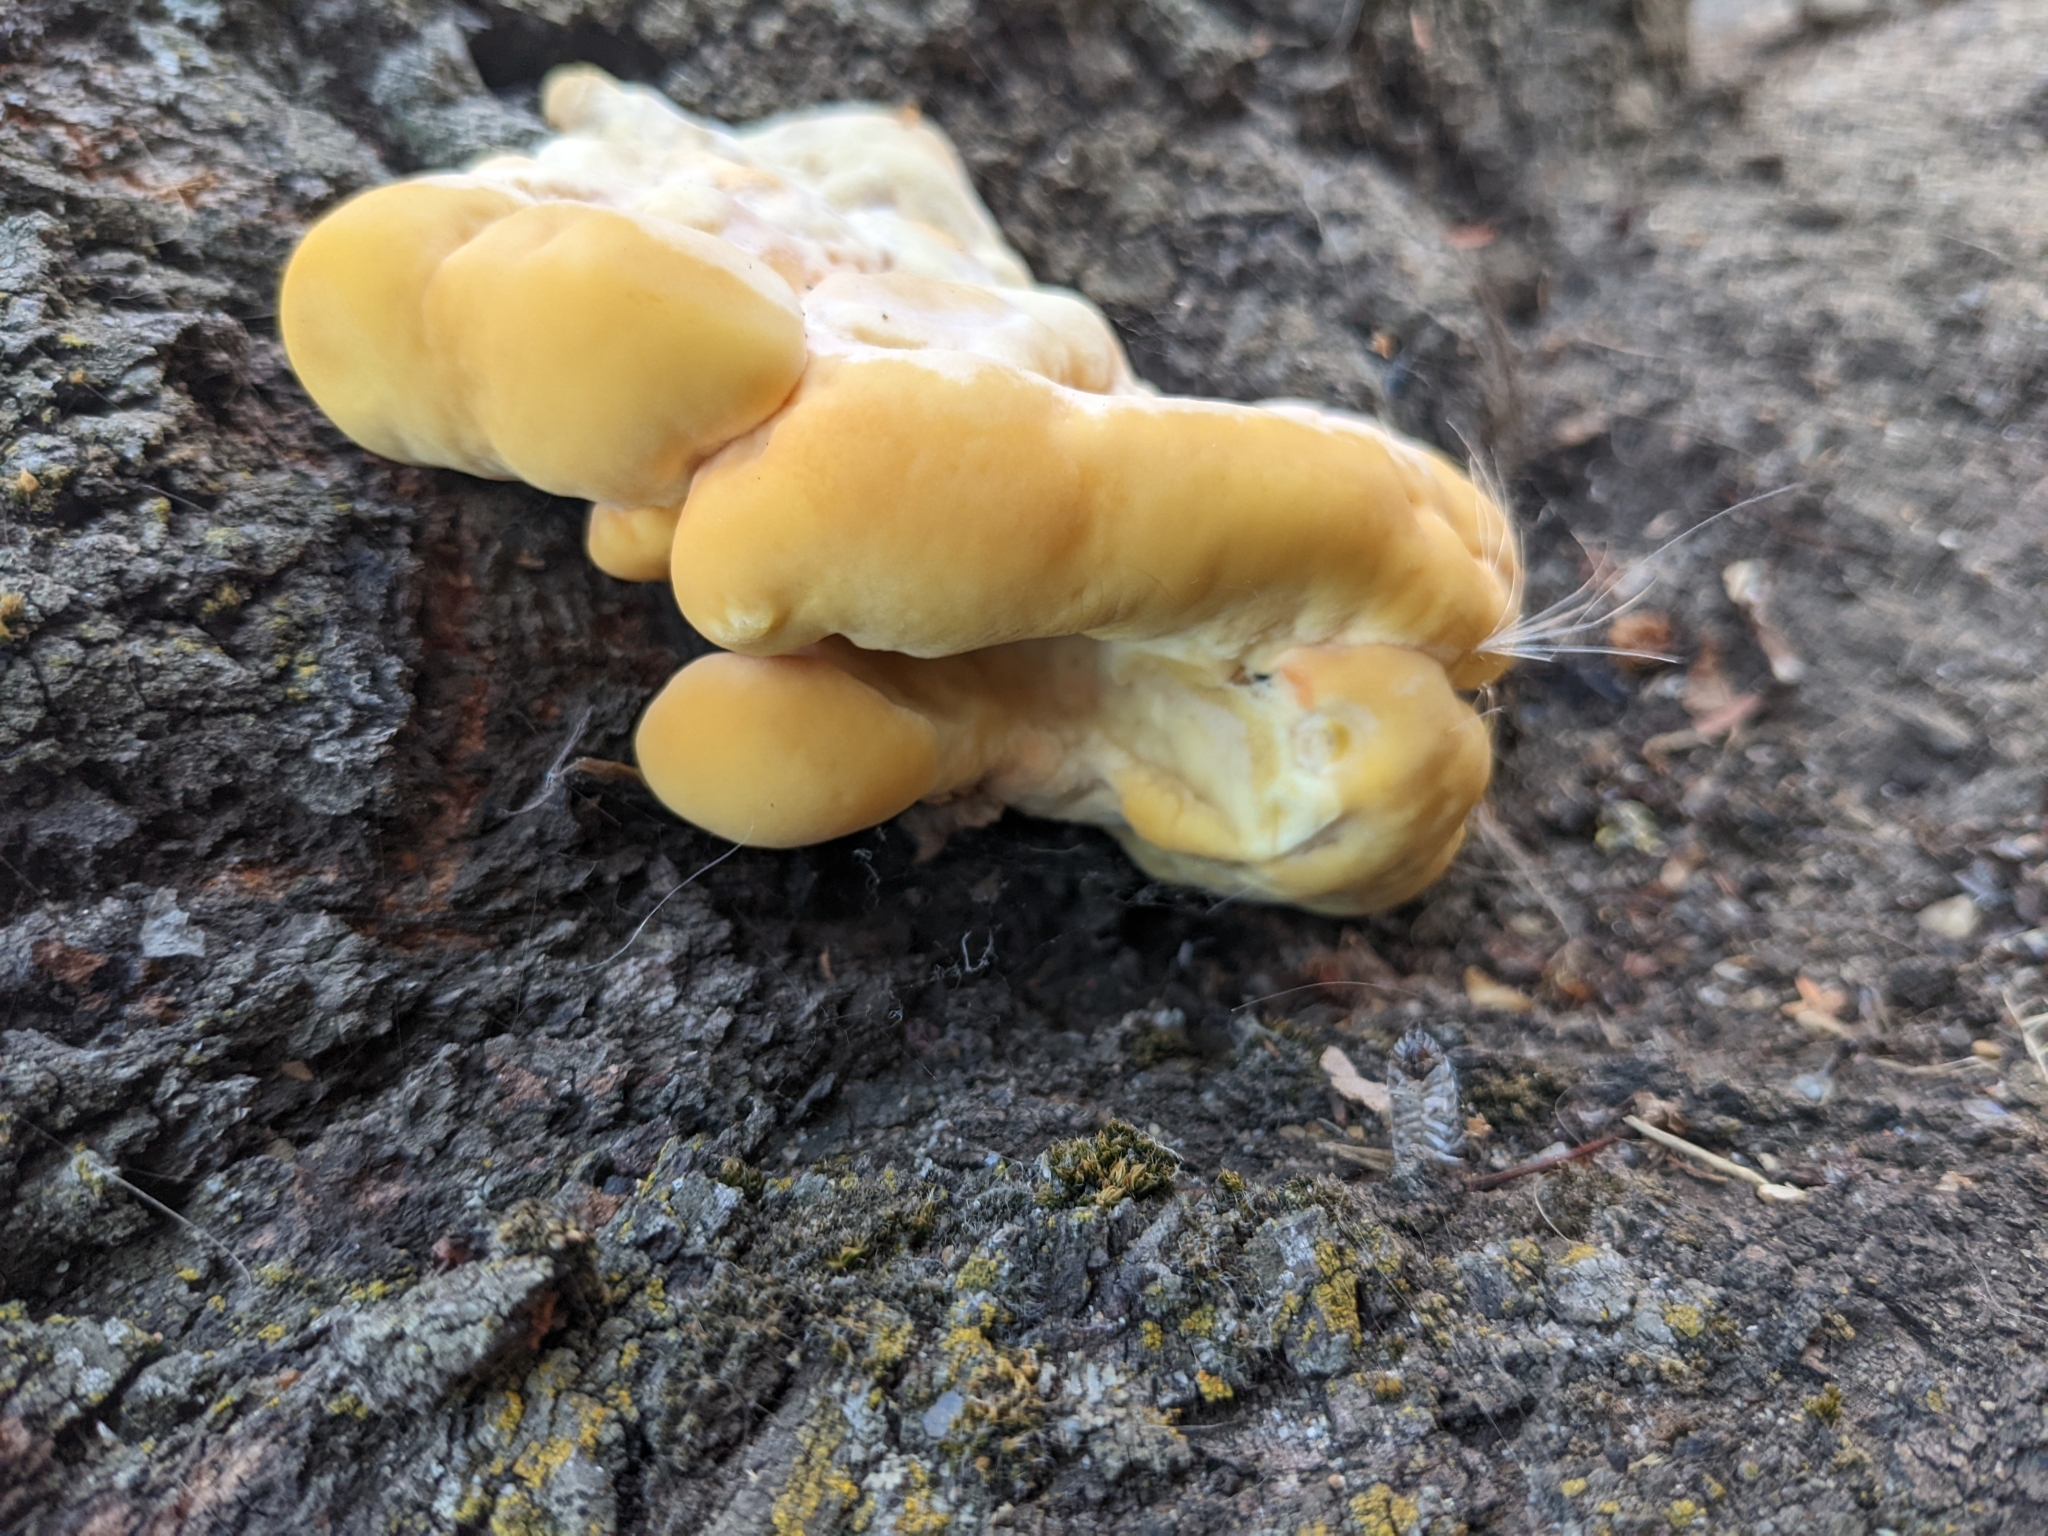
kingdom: Fungi
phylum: Basidiomycota
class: Agaricomycetes
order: Polyporales
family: Laetiporaceae
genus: Laetiporus
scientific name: Laetiporus sulphureus
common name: Chicken of the woods
